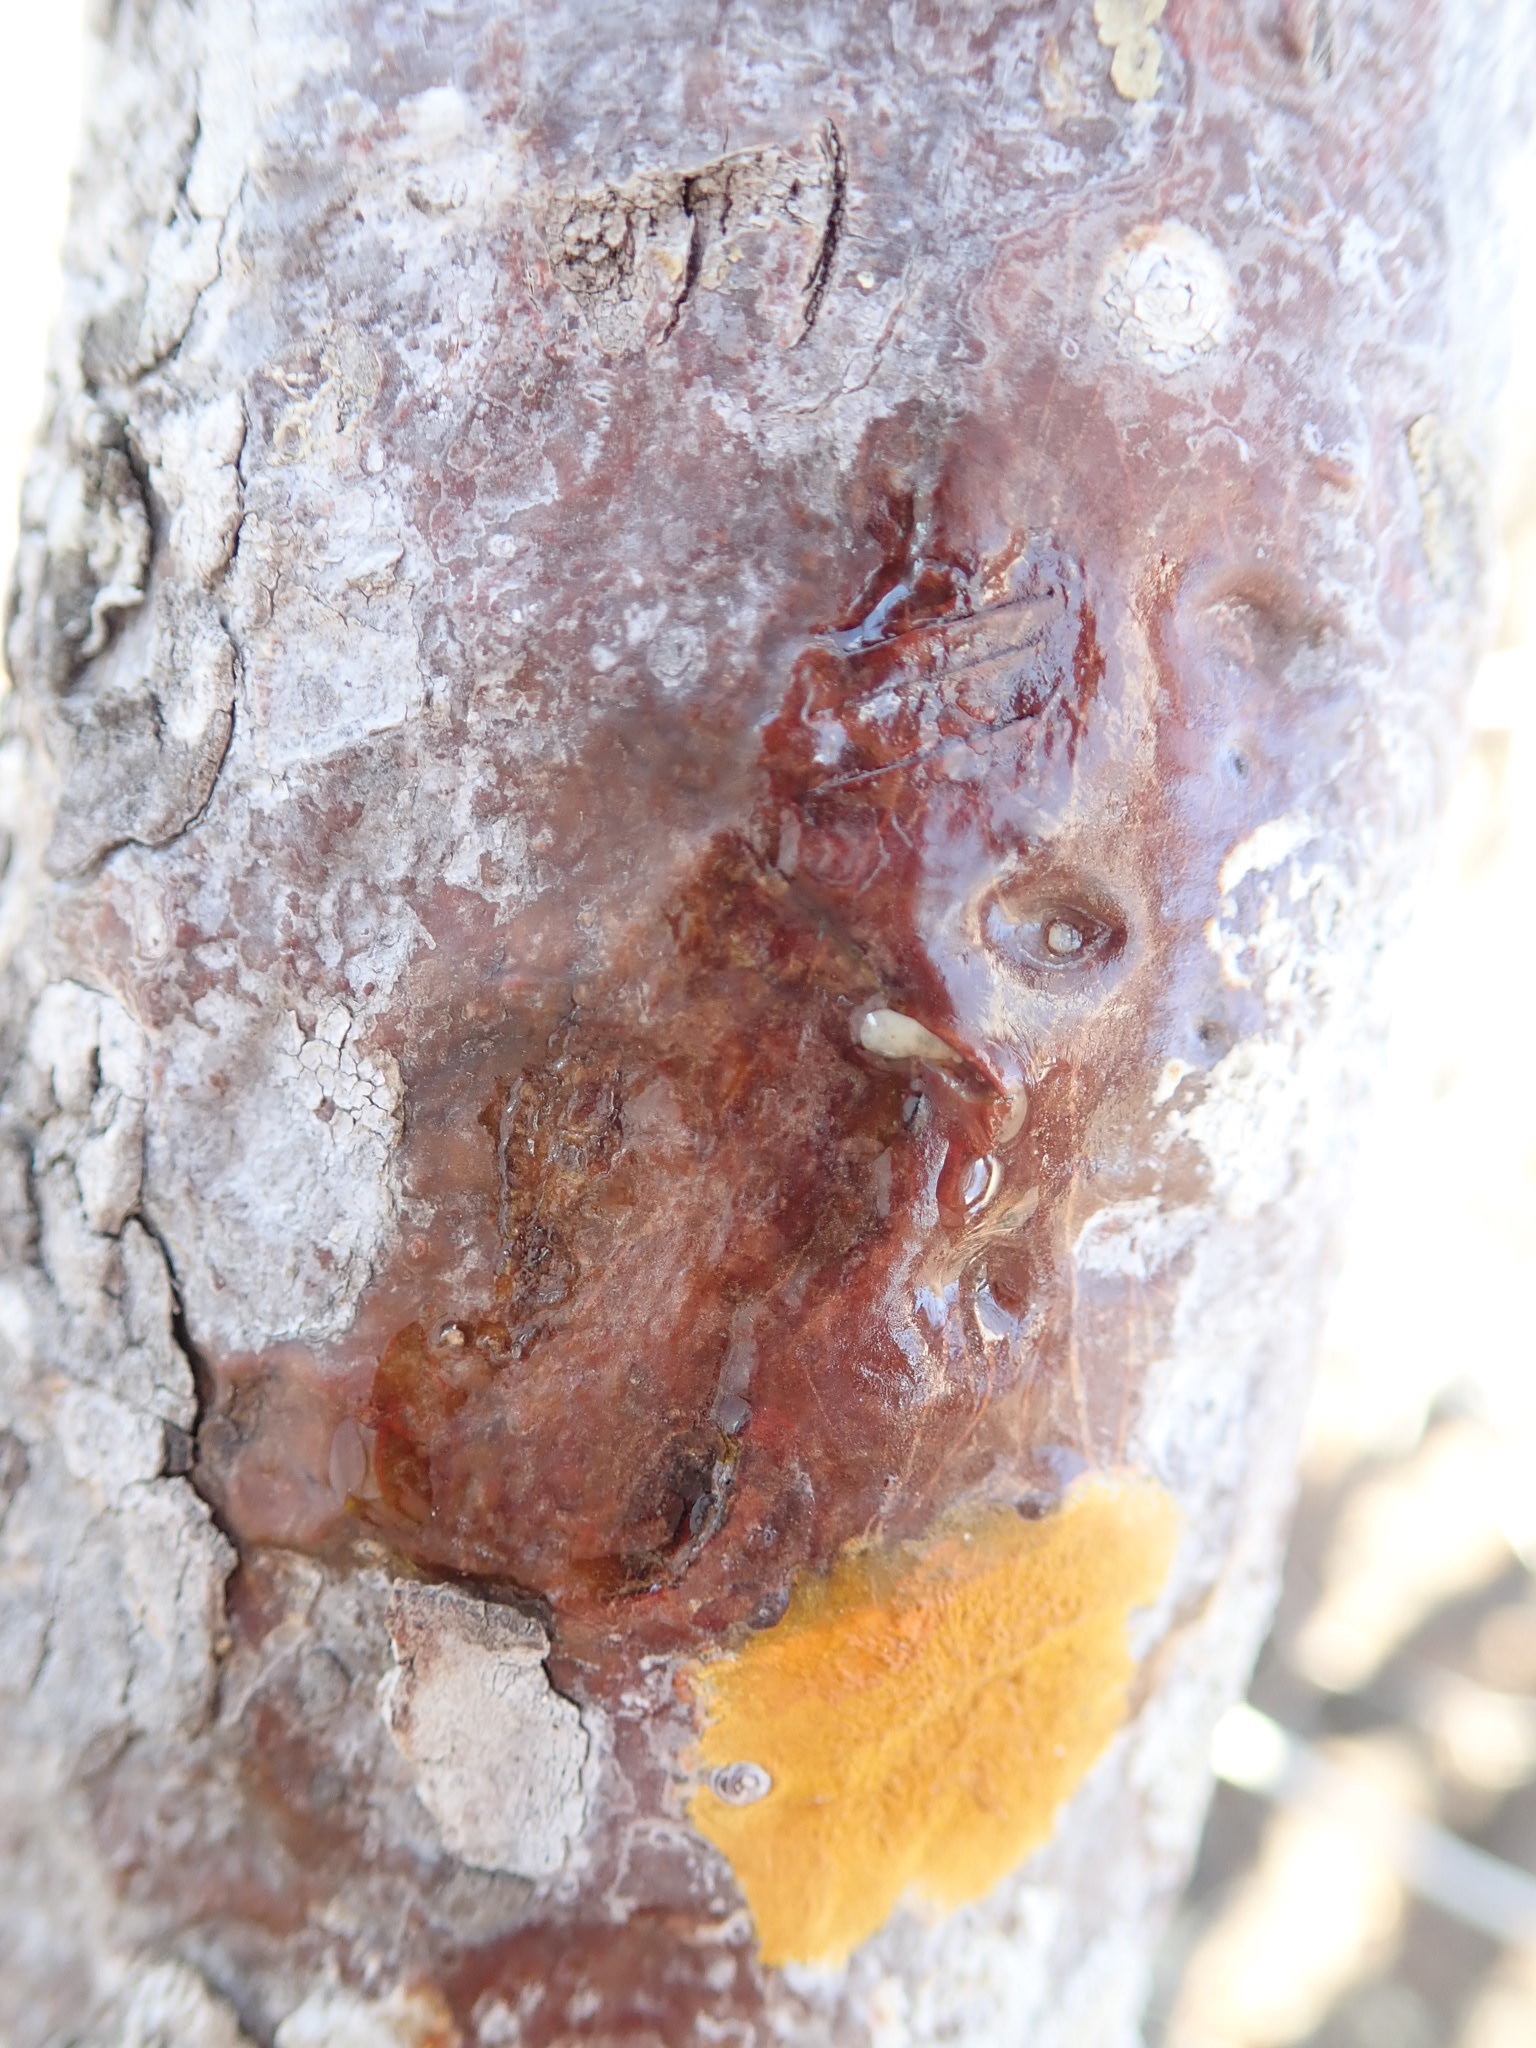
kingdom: Plantae
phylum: Tracheophyta
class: Magnoliopsida
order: Sapindales
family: Burseraceae
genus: Bursera
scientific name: Bursera graveolens
